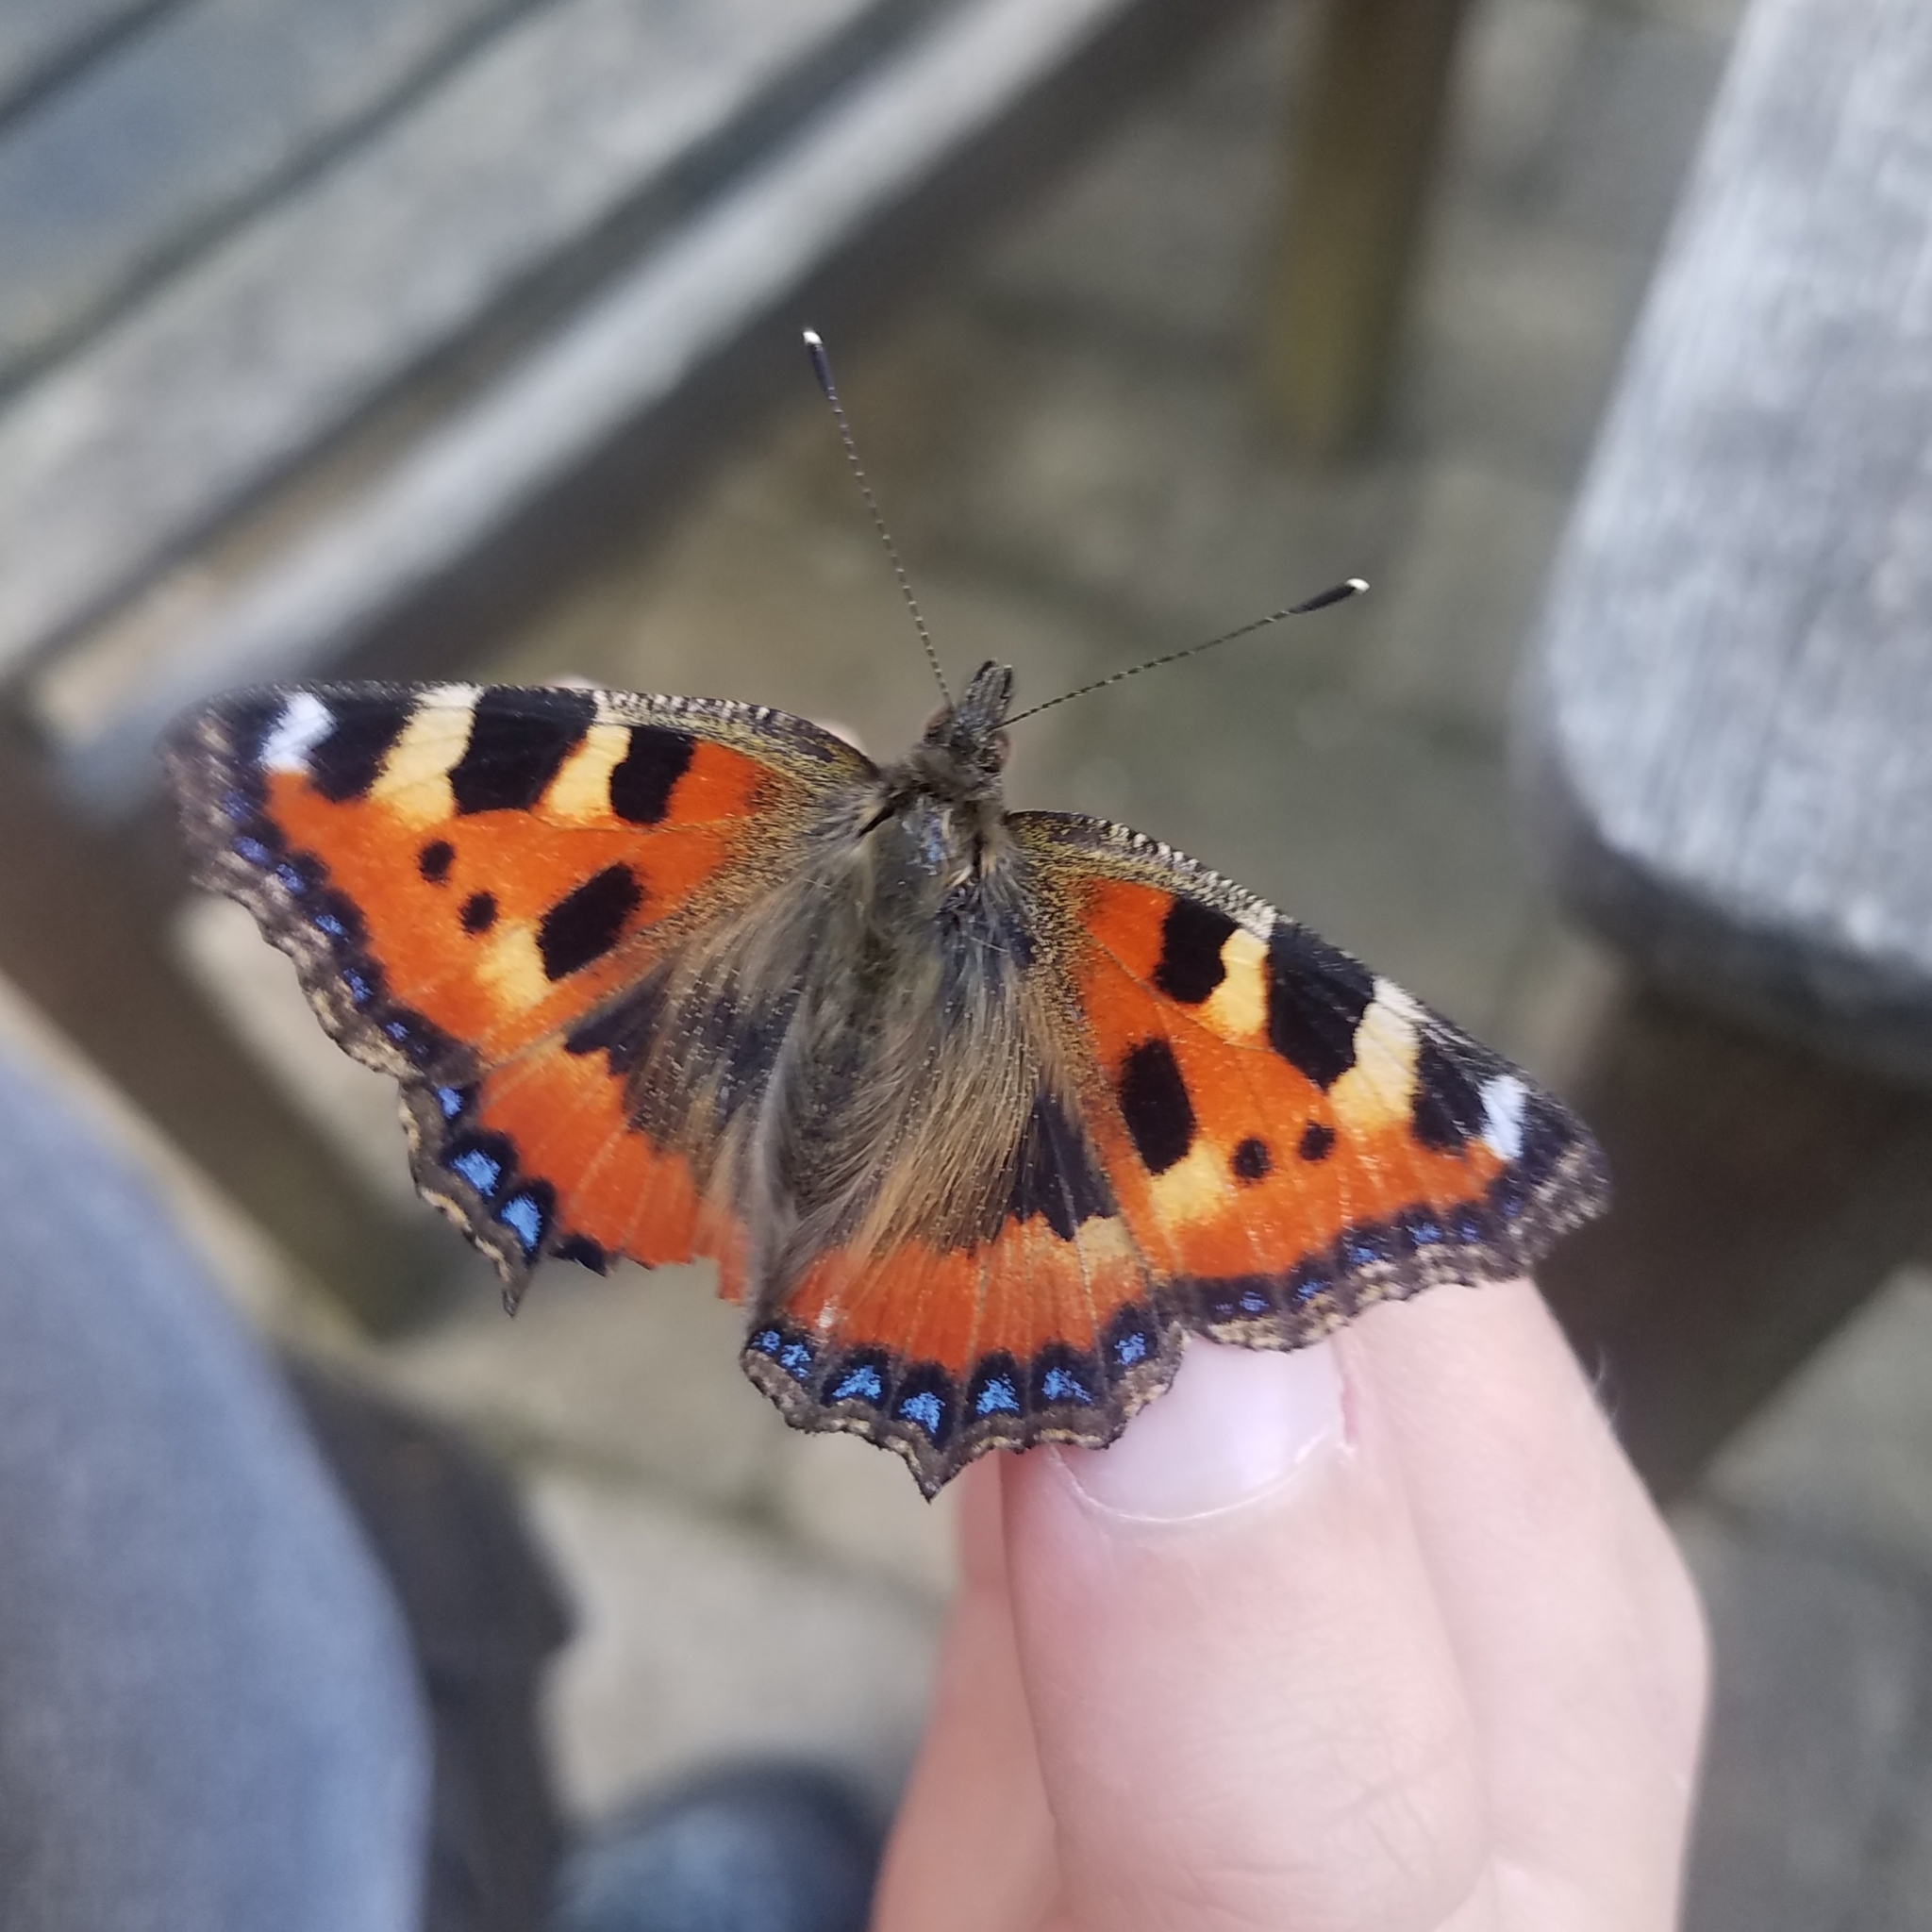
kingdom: Animalia
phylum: Arthropoda
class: Insecta
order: Lepidoptera
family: Nymphalidae
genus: Aglais
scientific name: Aglais urticae
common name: Small tortoiseshell
